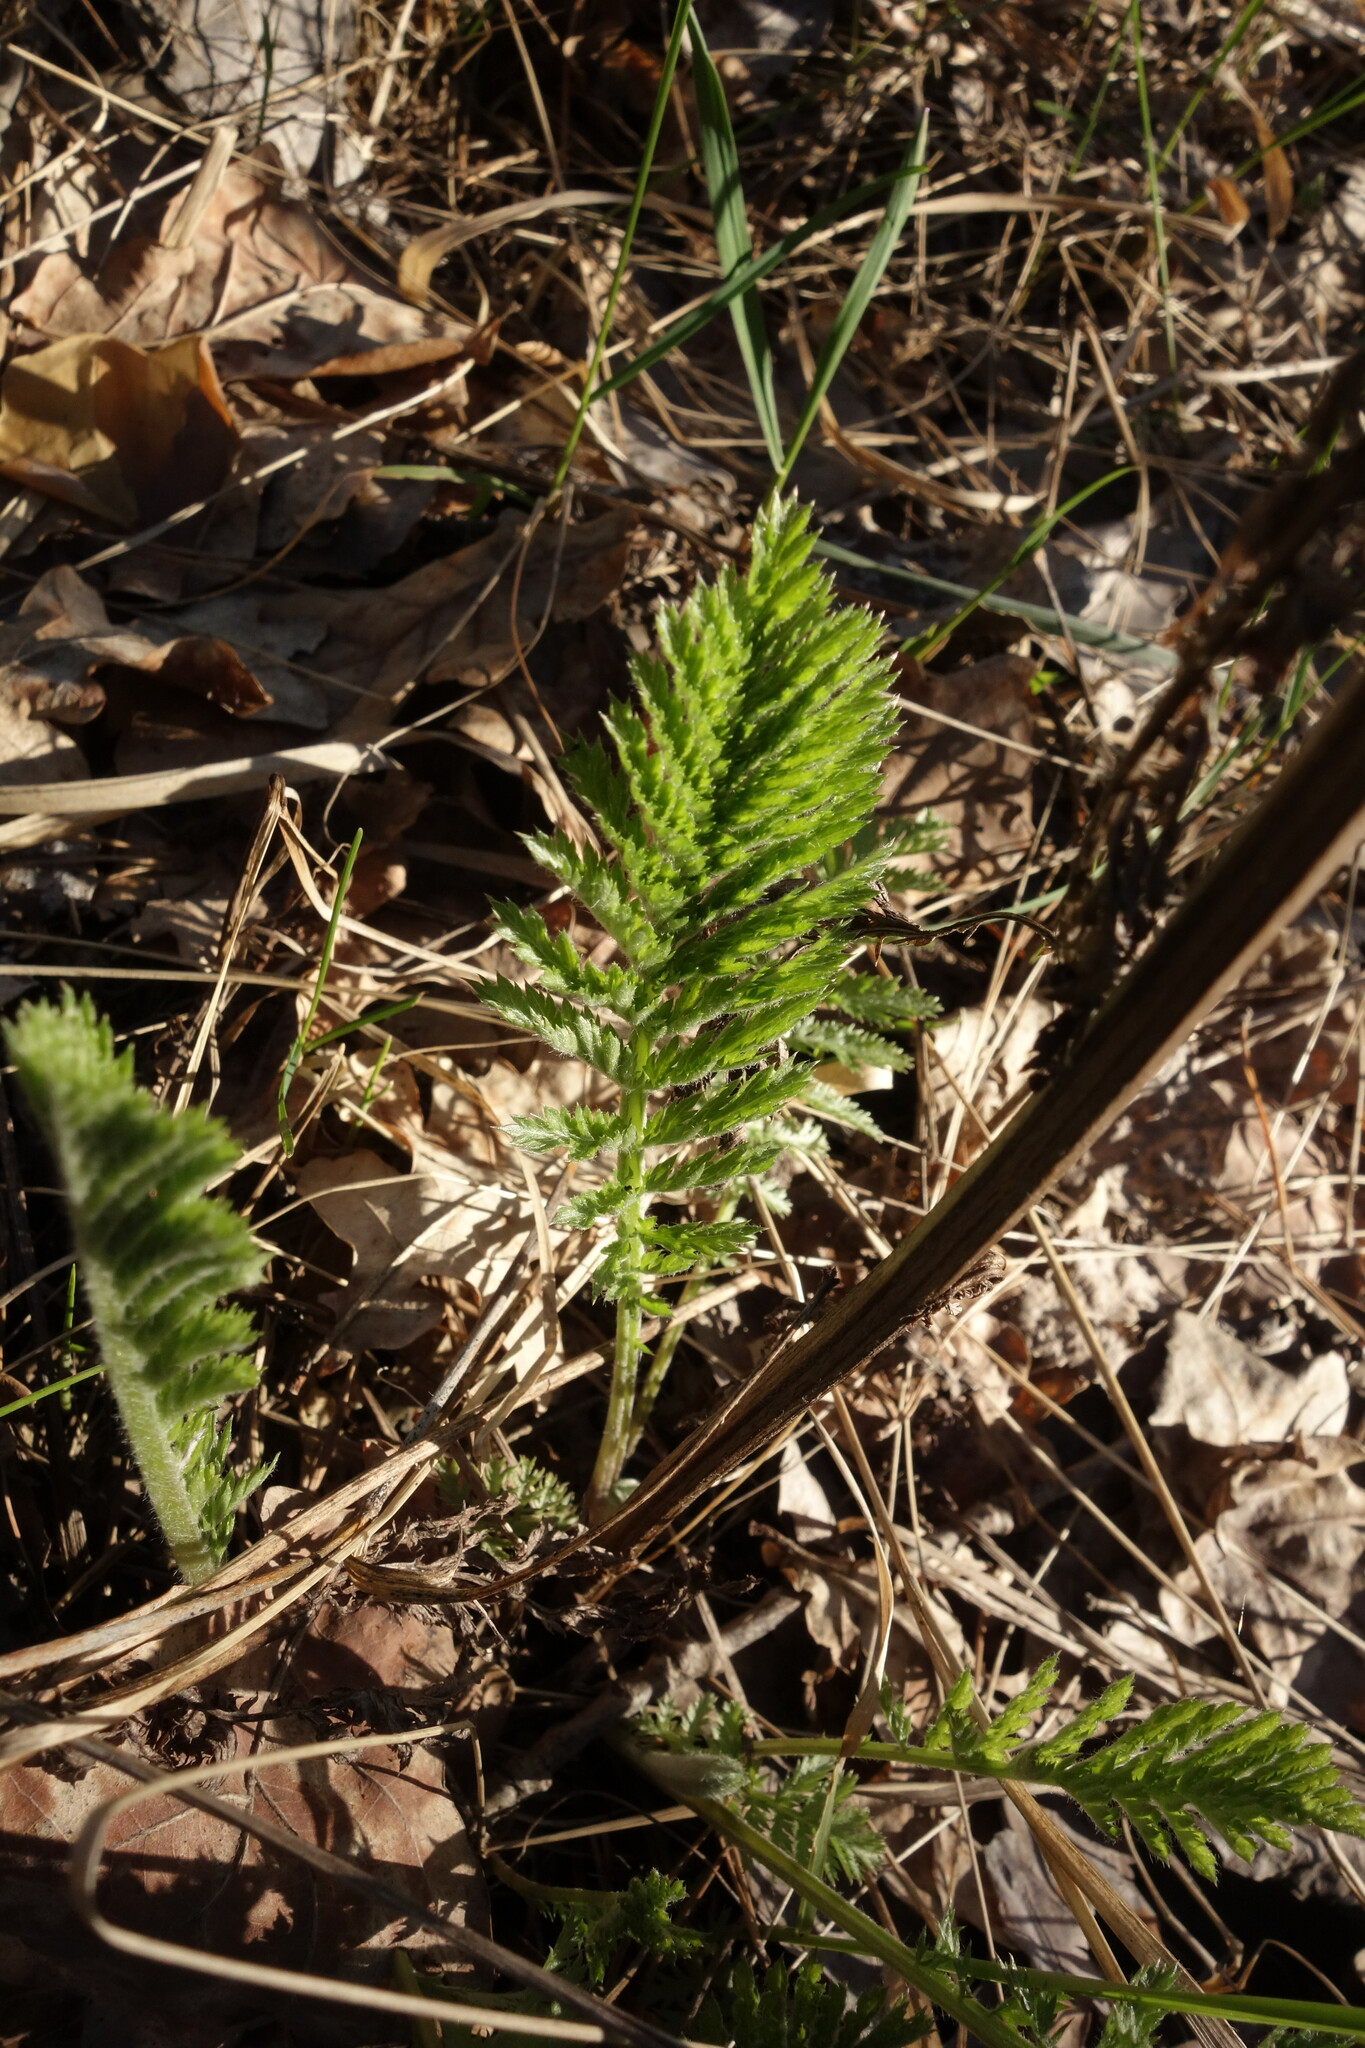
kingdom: Plantae
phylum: Tracheophyta
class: Magnoliopsida
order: Asterales
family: Asteraceae
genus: Tanacetum
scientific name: Tanacetum corymbosum
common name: Scentless feverfew
